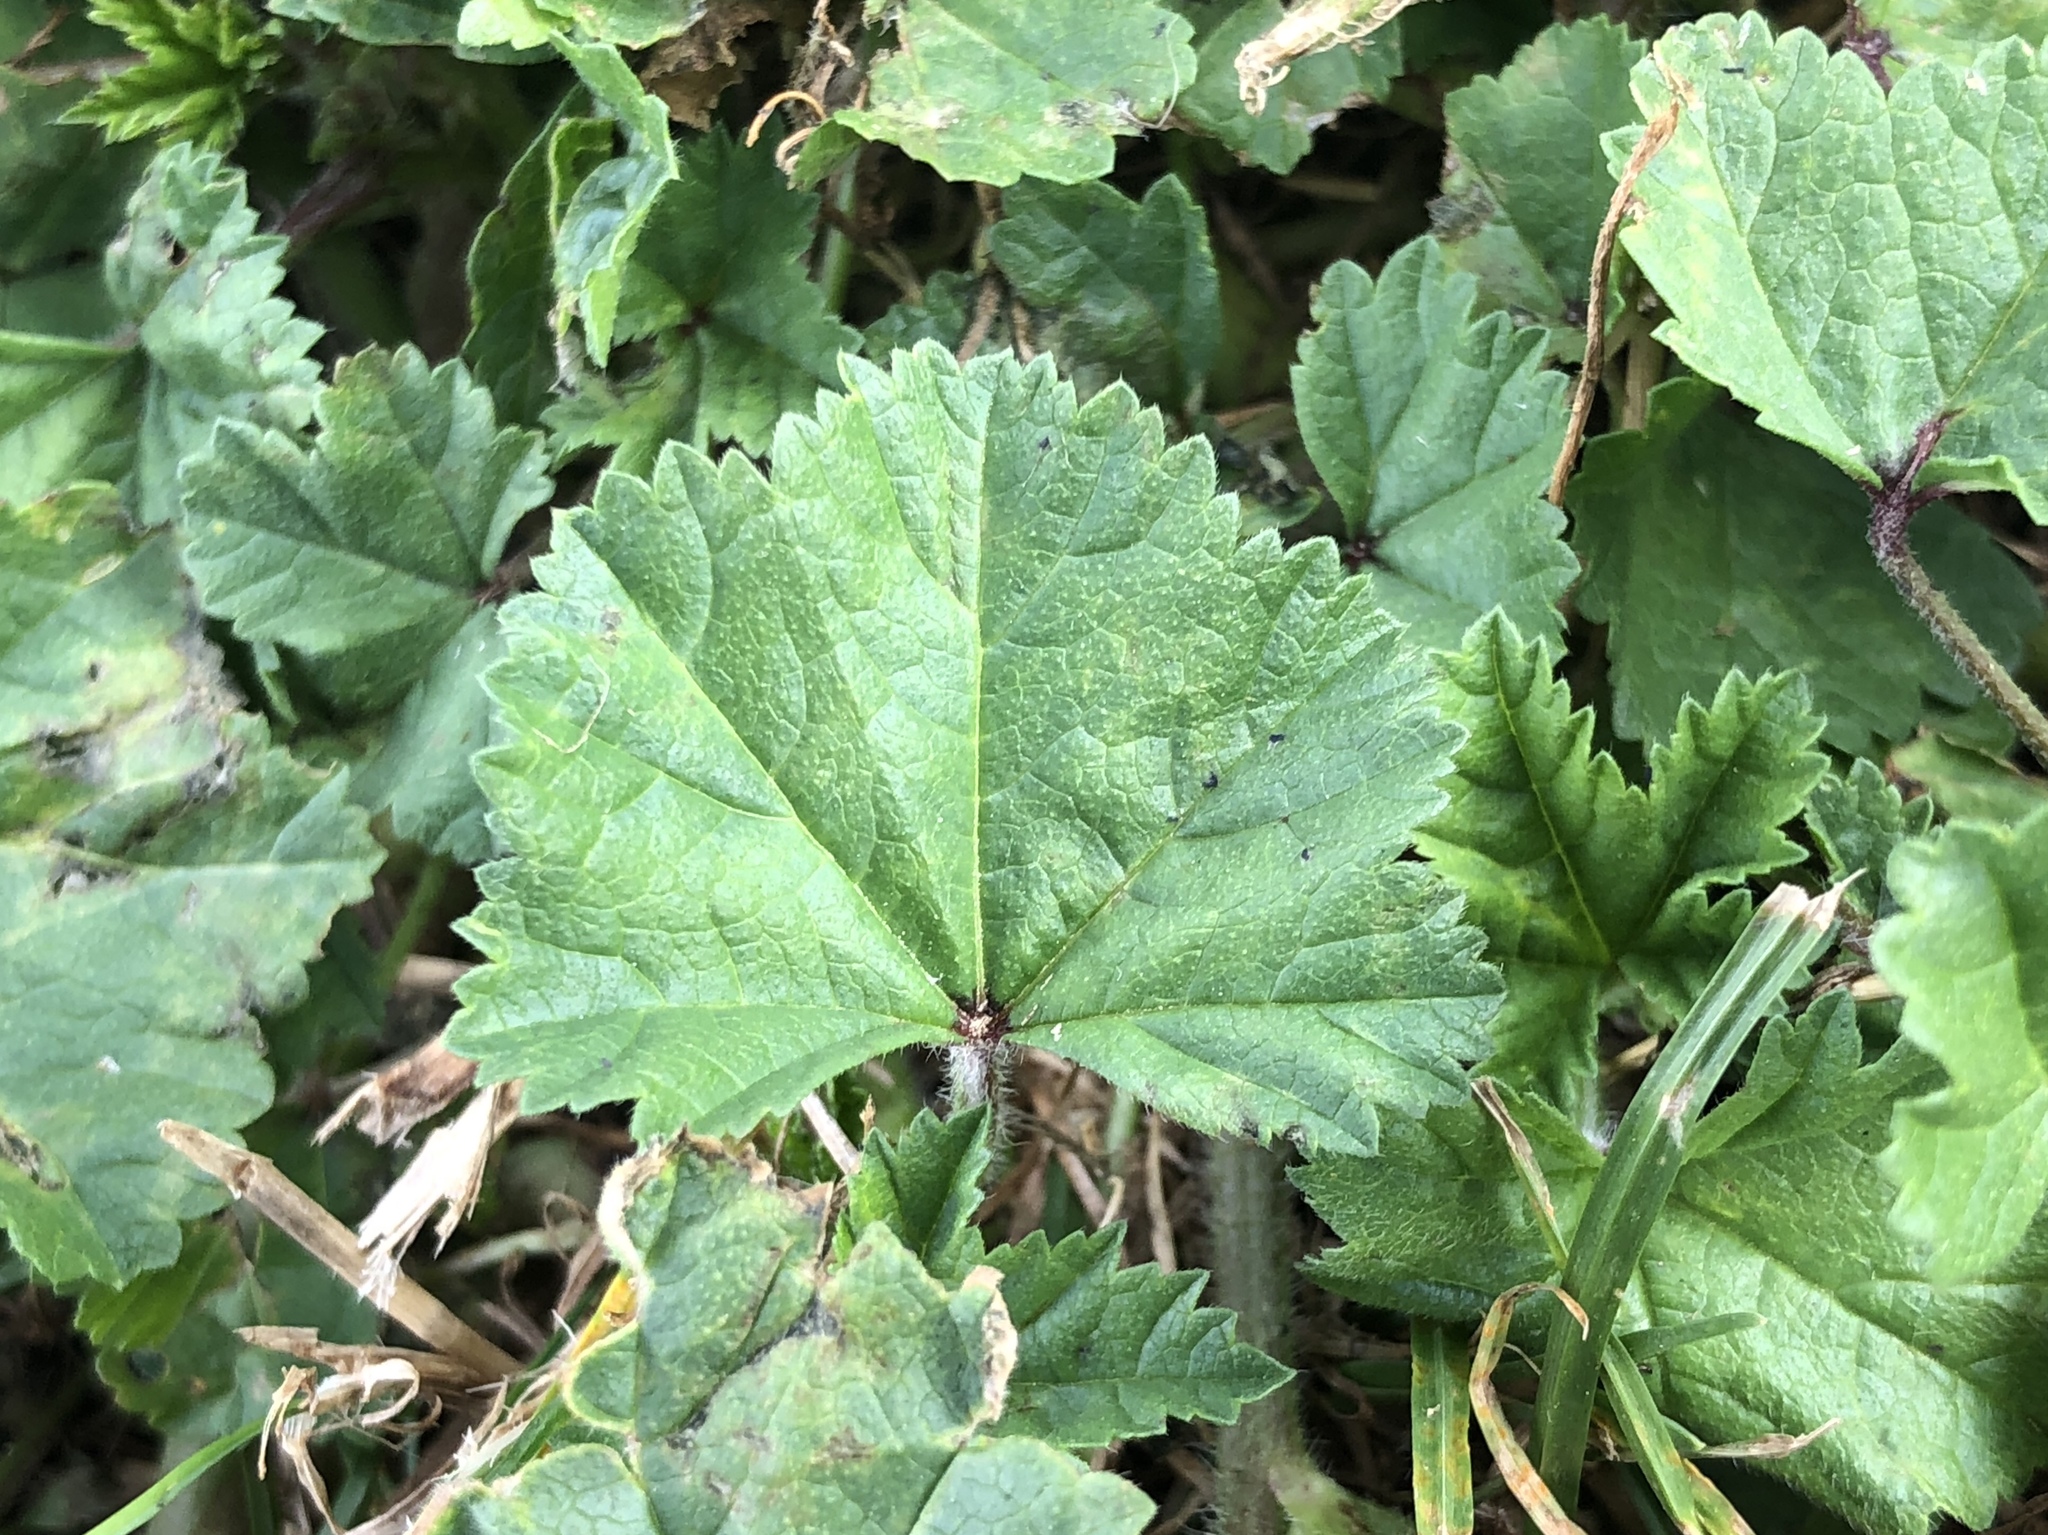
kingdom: Plantae
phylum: Tracheophyta
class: Magnoliopsida
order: Malvales
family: Malvaceae
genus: Malva
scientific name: Malva sylvestris
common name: Common mallow
